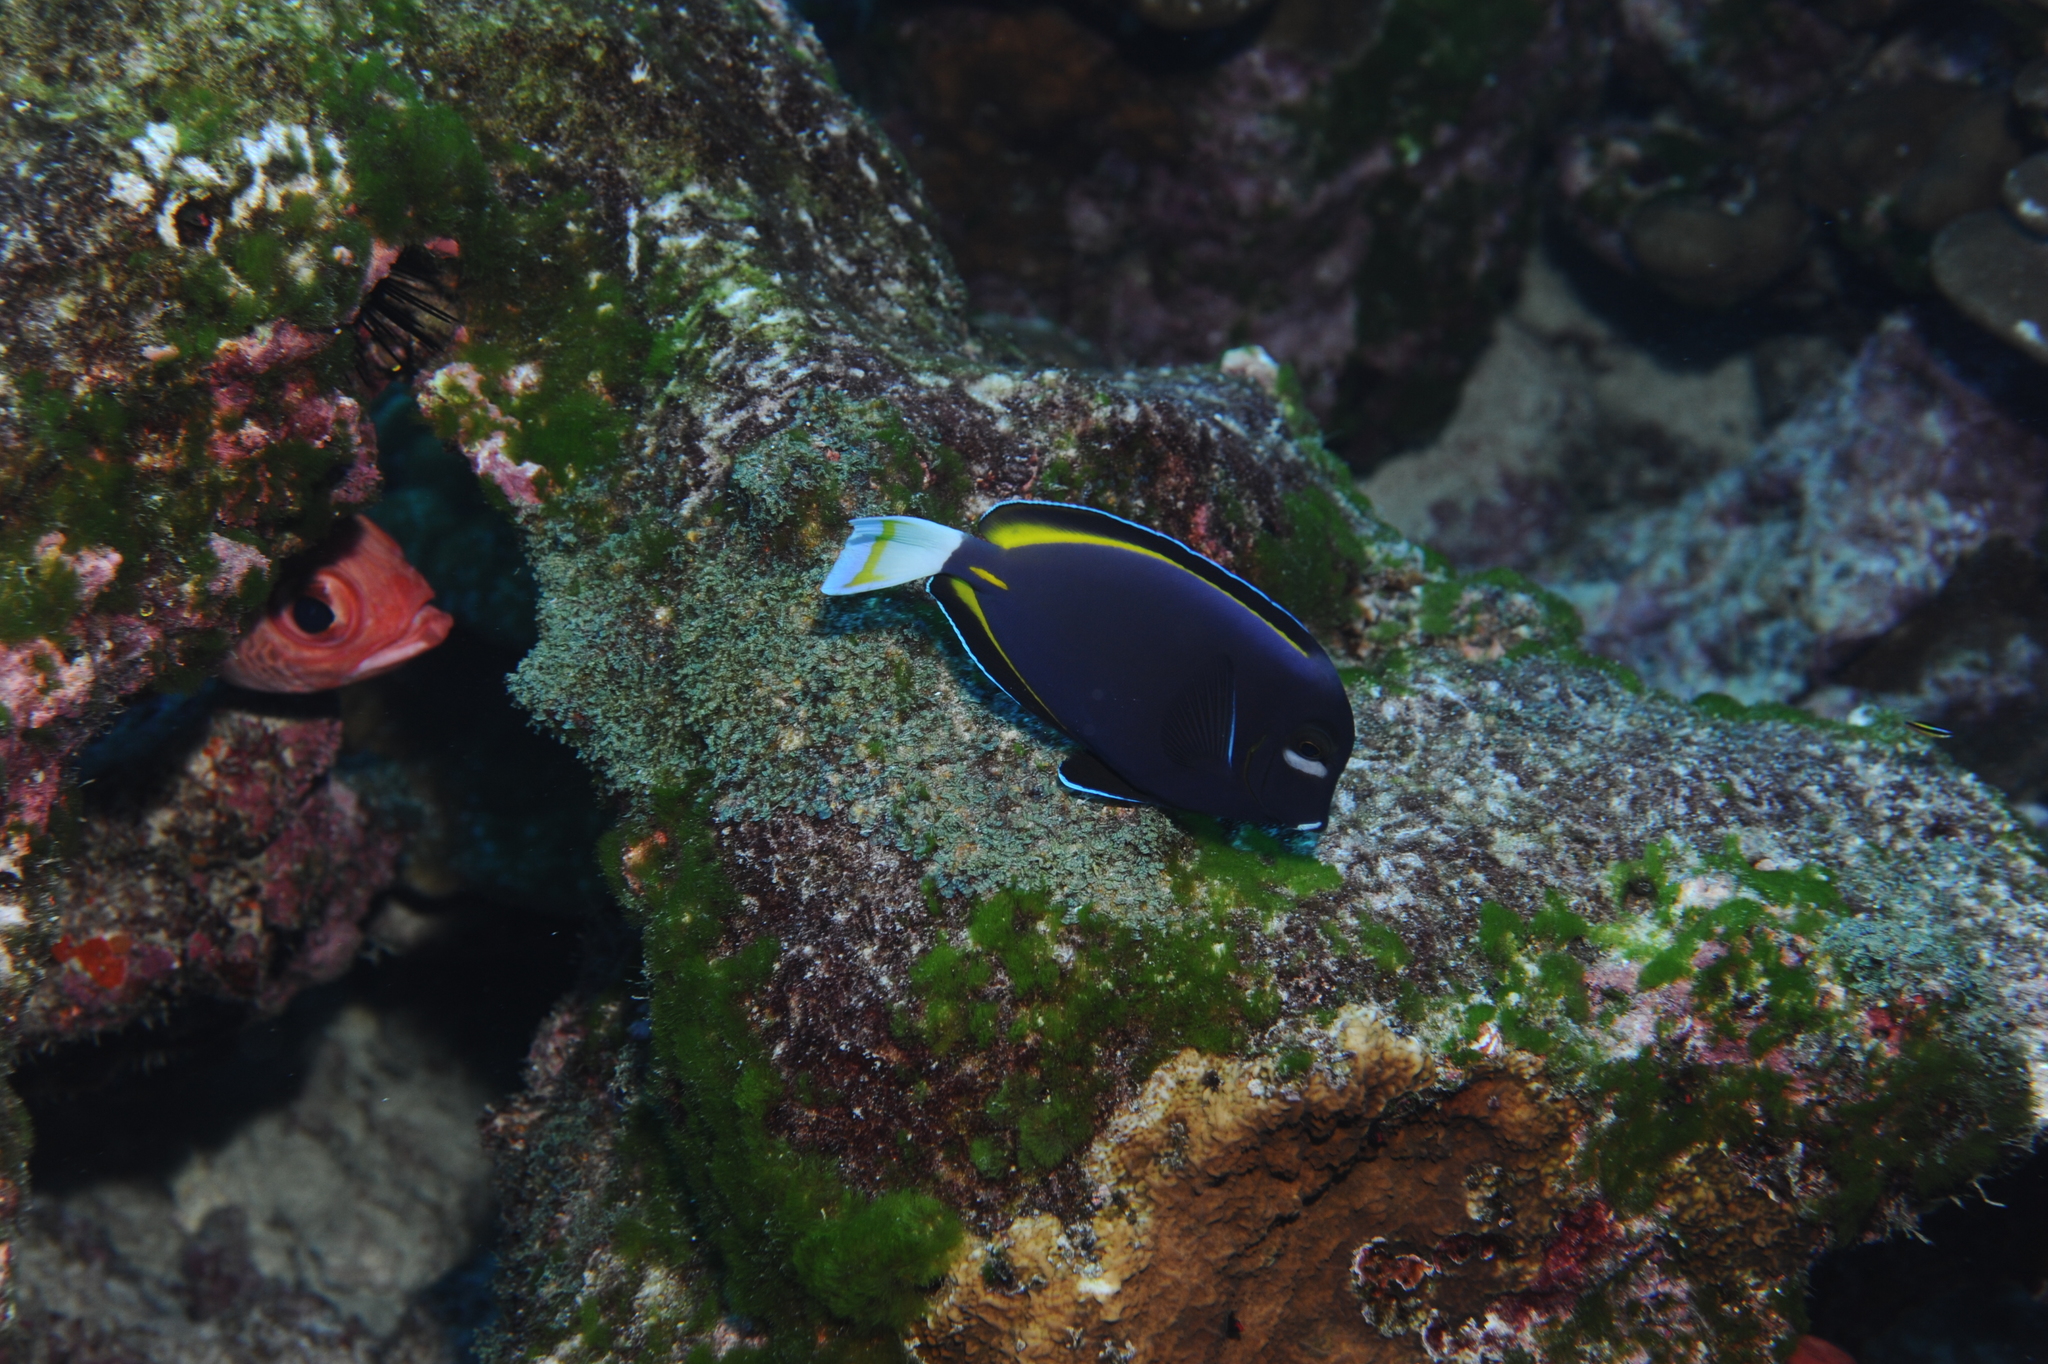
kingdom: Animalia
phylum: Chordata
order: Perciformes
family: Acanthuridae
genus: Acanthurus
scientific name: Acanthurus nigricans
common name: Whitecheek surgeonfish
